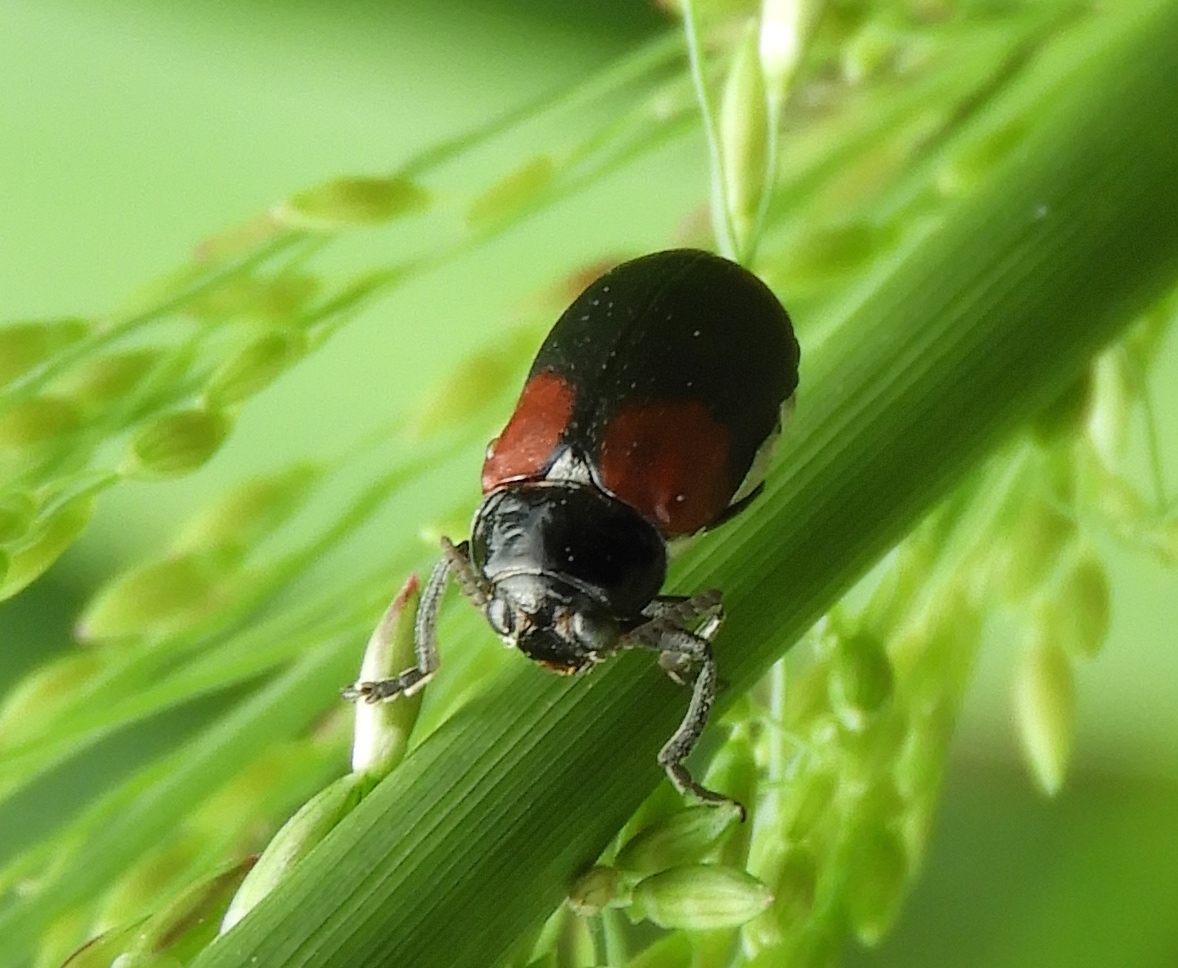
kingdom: Animalia
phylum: Arthropoda
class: Insecta
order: Coleoptera
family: Chrysomelidae
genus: Anomoea
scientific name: Anomoea rufifrons
